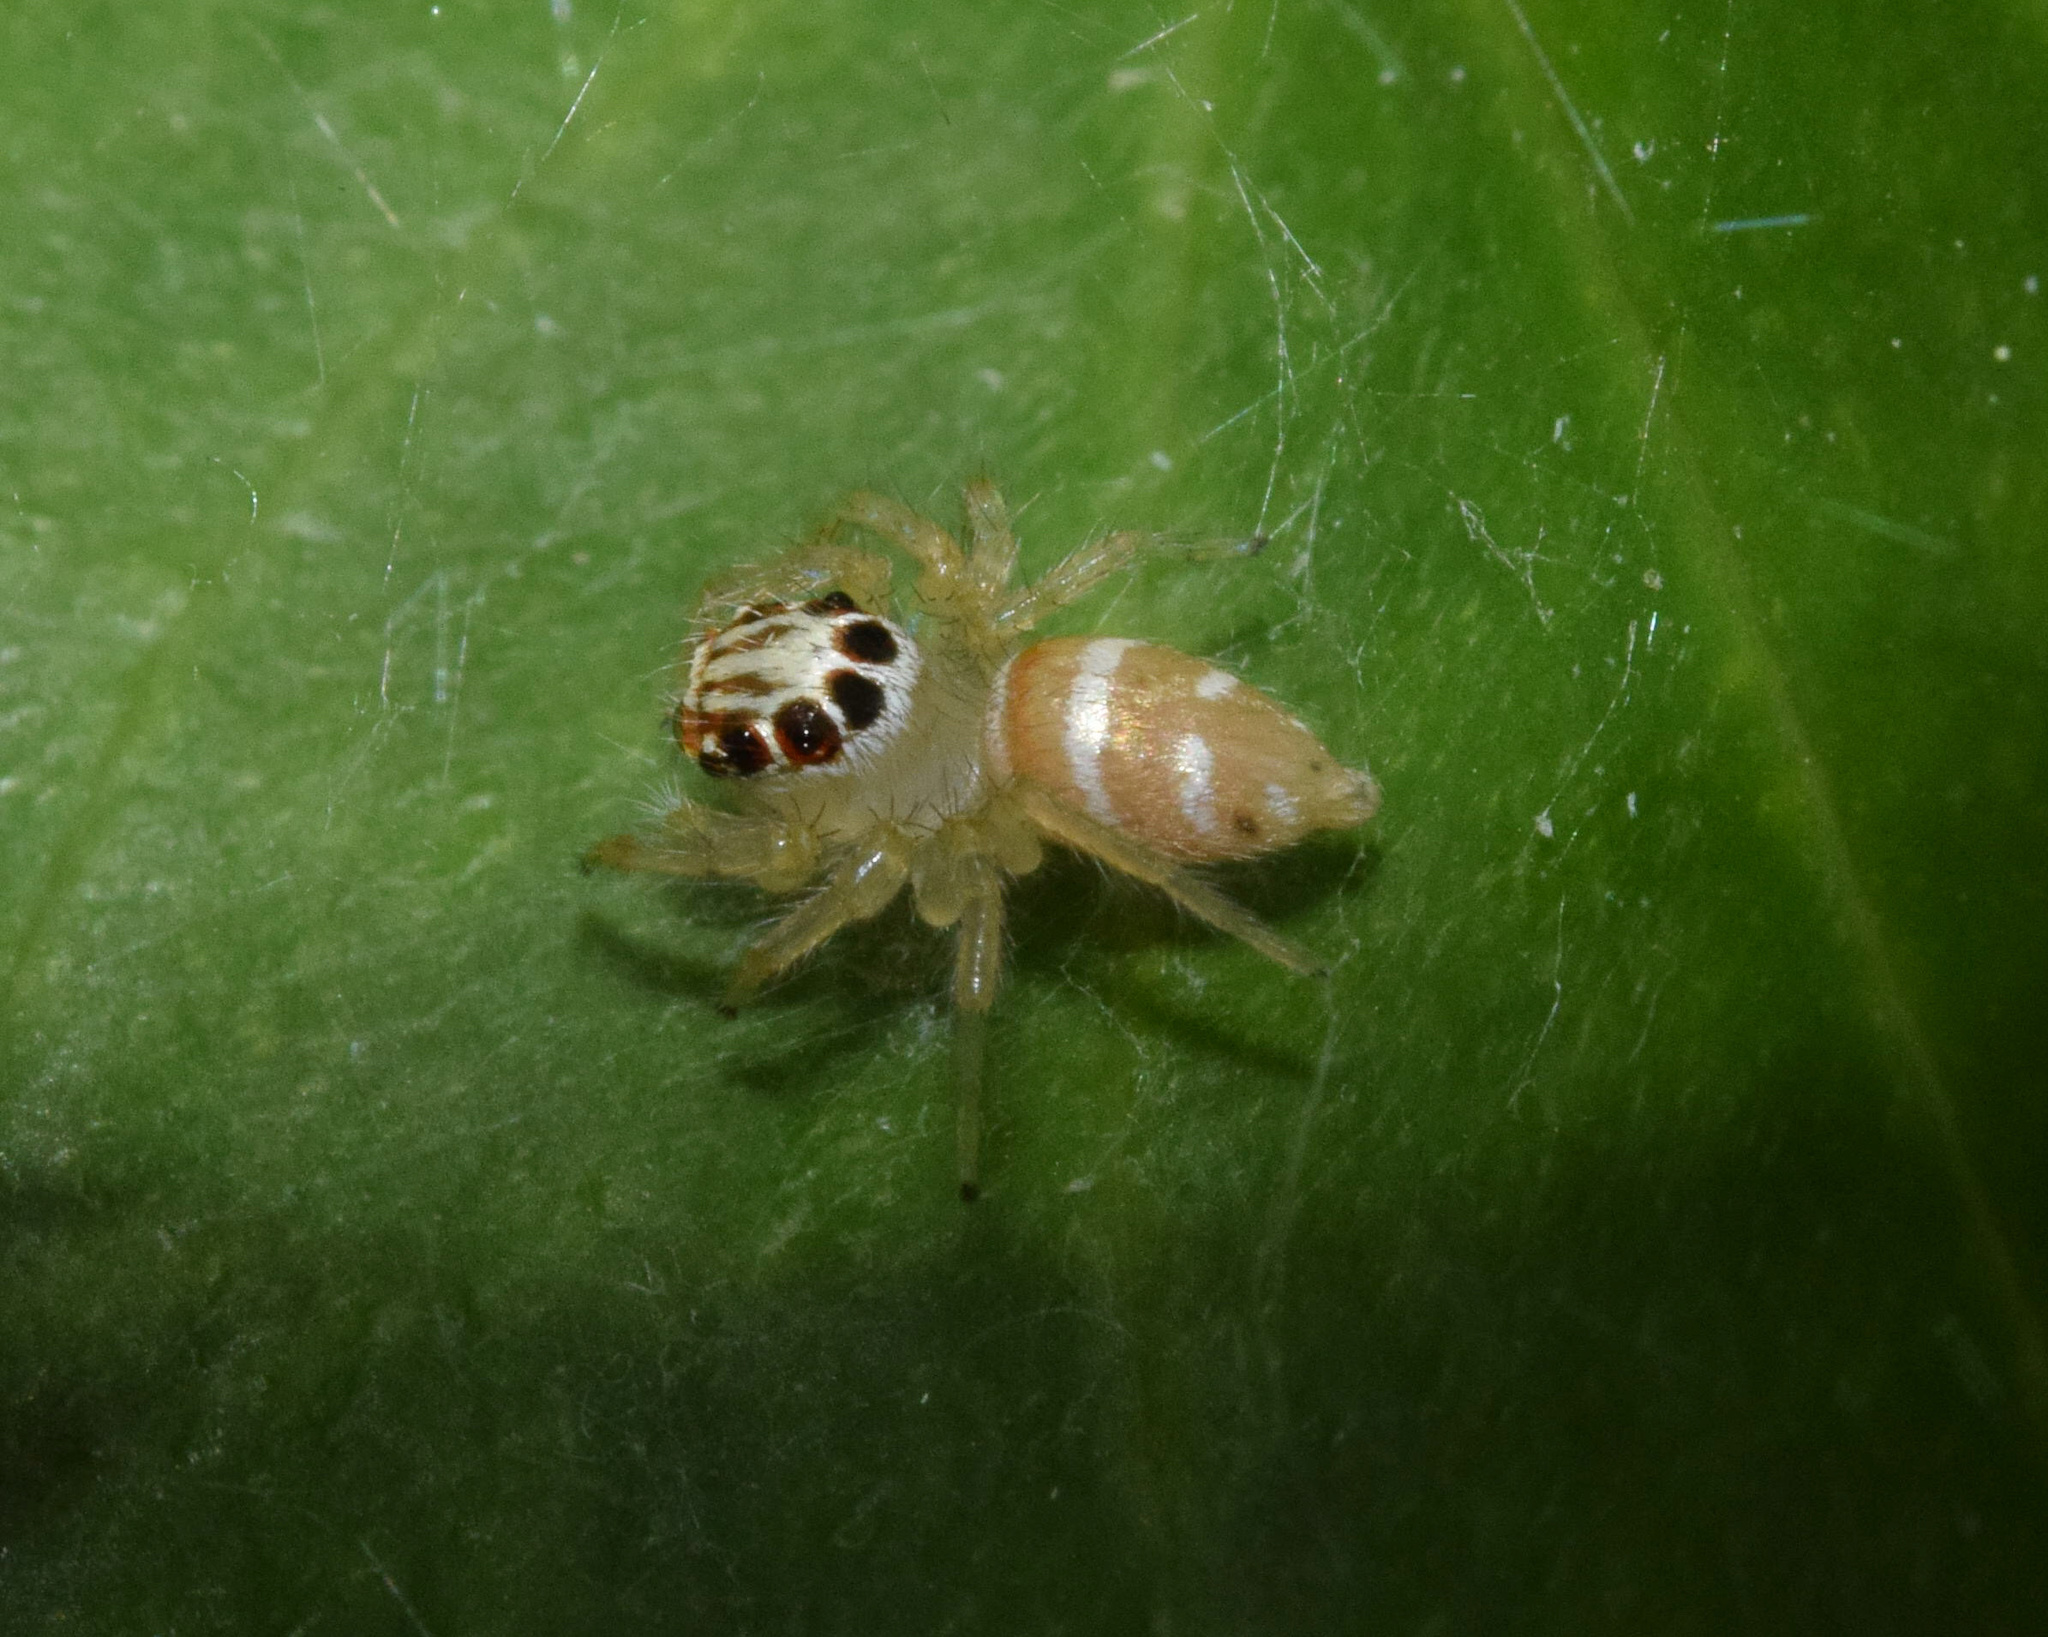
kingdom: Animalia
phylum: Arthropoda
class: Arachnida
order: Araneae
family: Salticidae
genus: Brancus
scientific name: Brancus mustelus
